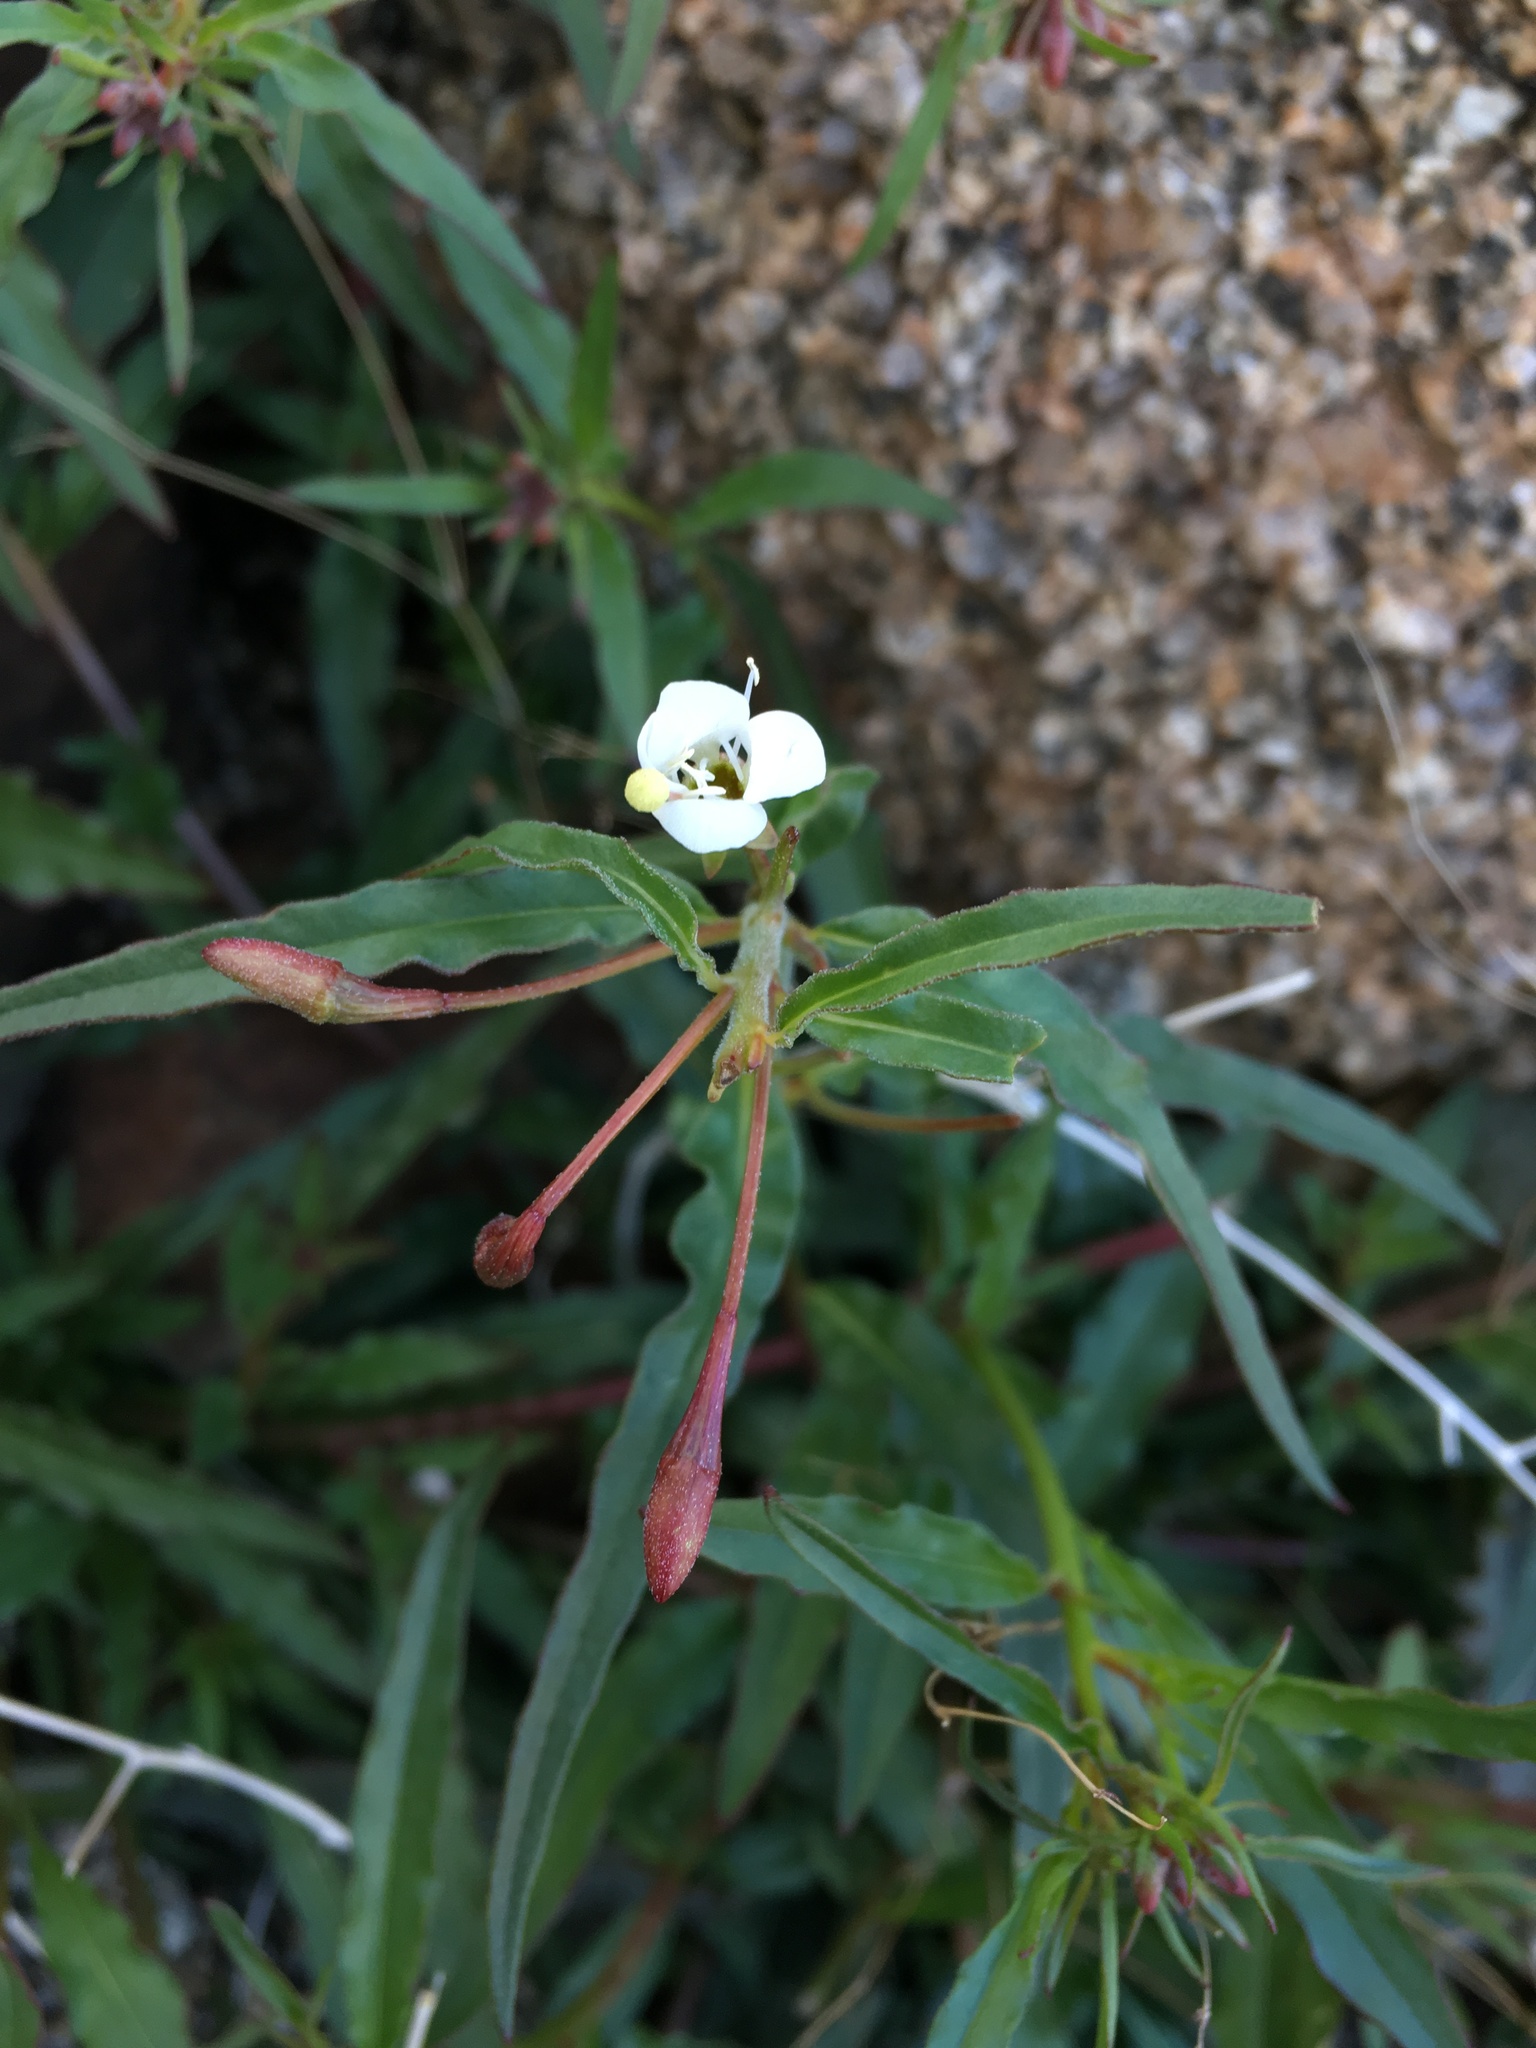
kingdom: Plantae
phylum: Tracheophyta
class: Magnoliopsida
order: Myrtales
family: Onagraceae
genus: Eremothera
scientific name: Eremothera refracta
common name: Narrowleaf suncup
